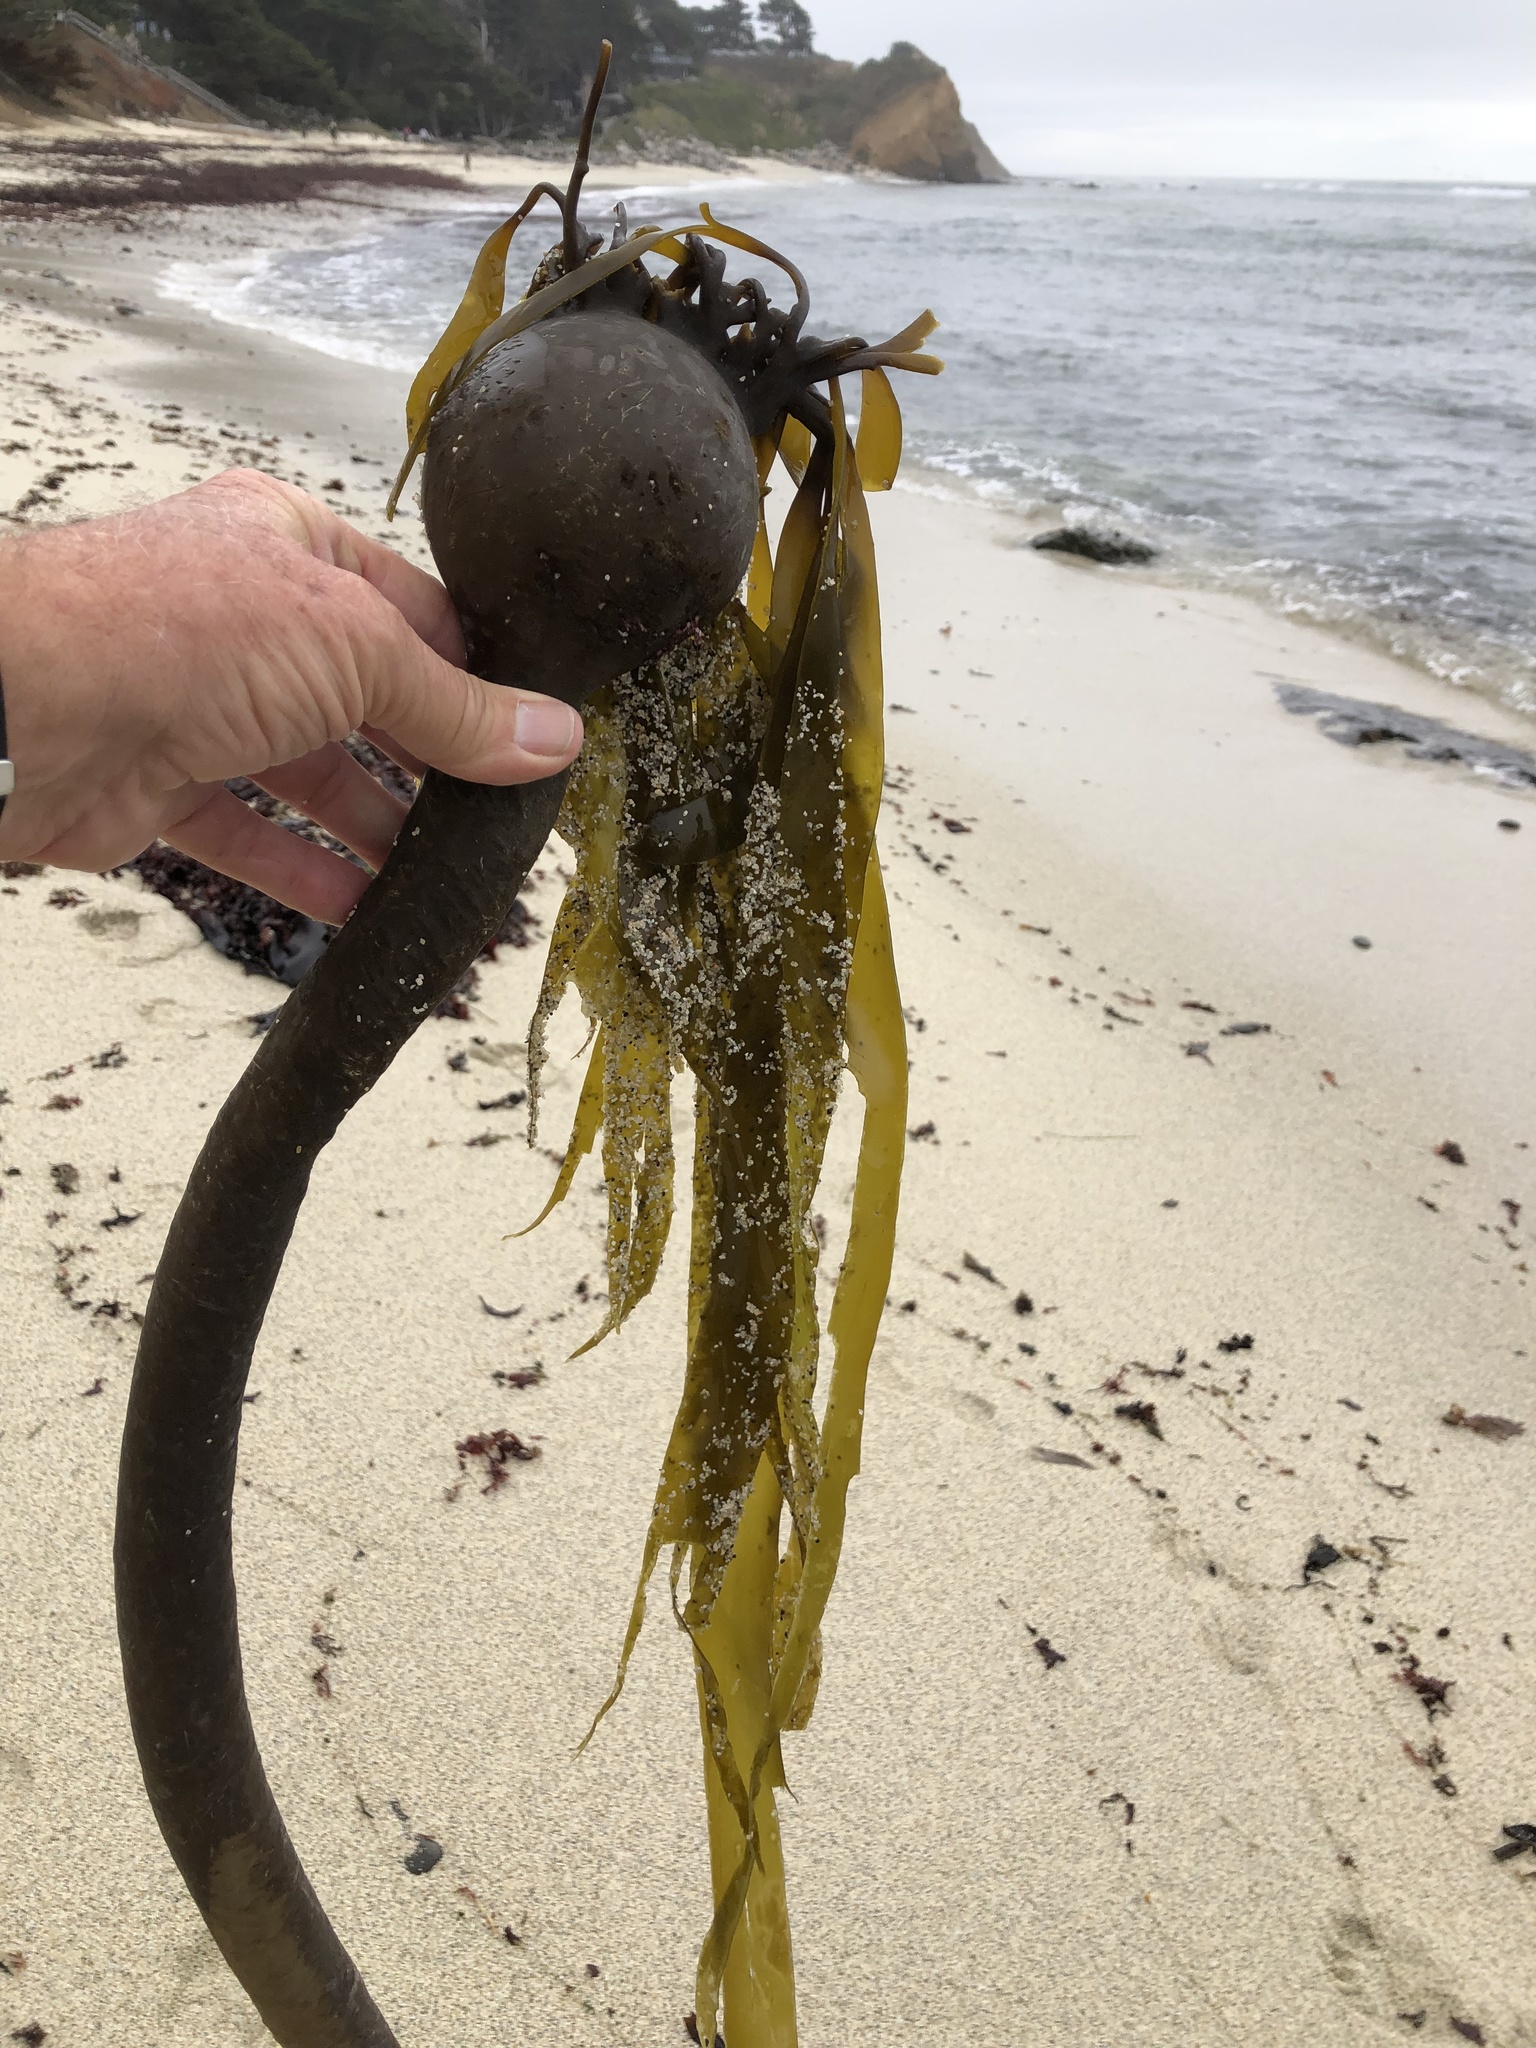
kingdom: Chromista
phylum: Ochrophyta
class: Phaeophyceae
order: Laminariales
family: Laminariaceae
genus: Nereocystis
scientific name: Nereocystis luetkeana
